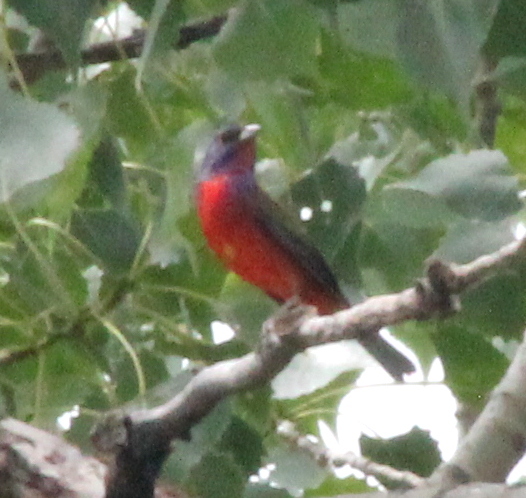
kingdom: Animalia
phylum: Chordata
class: Aves
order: Passeriformes
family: Cardinalidae
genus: Passerina
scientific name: Passerina ciris
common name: Painted bunting
